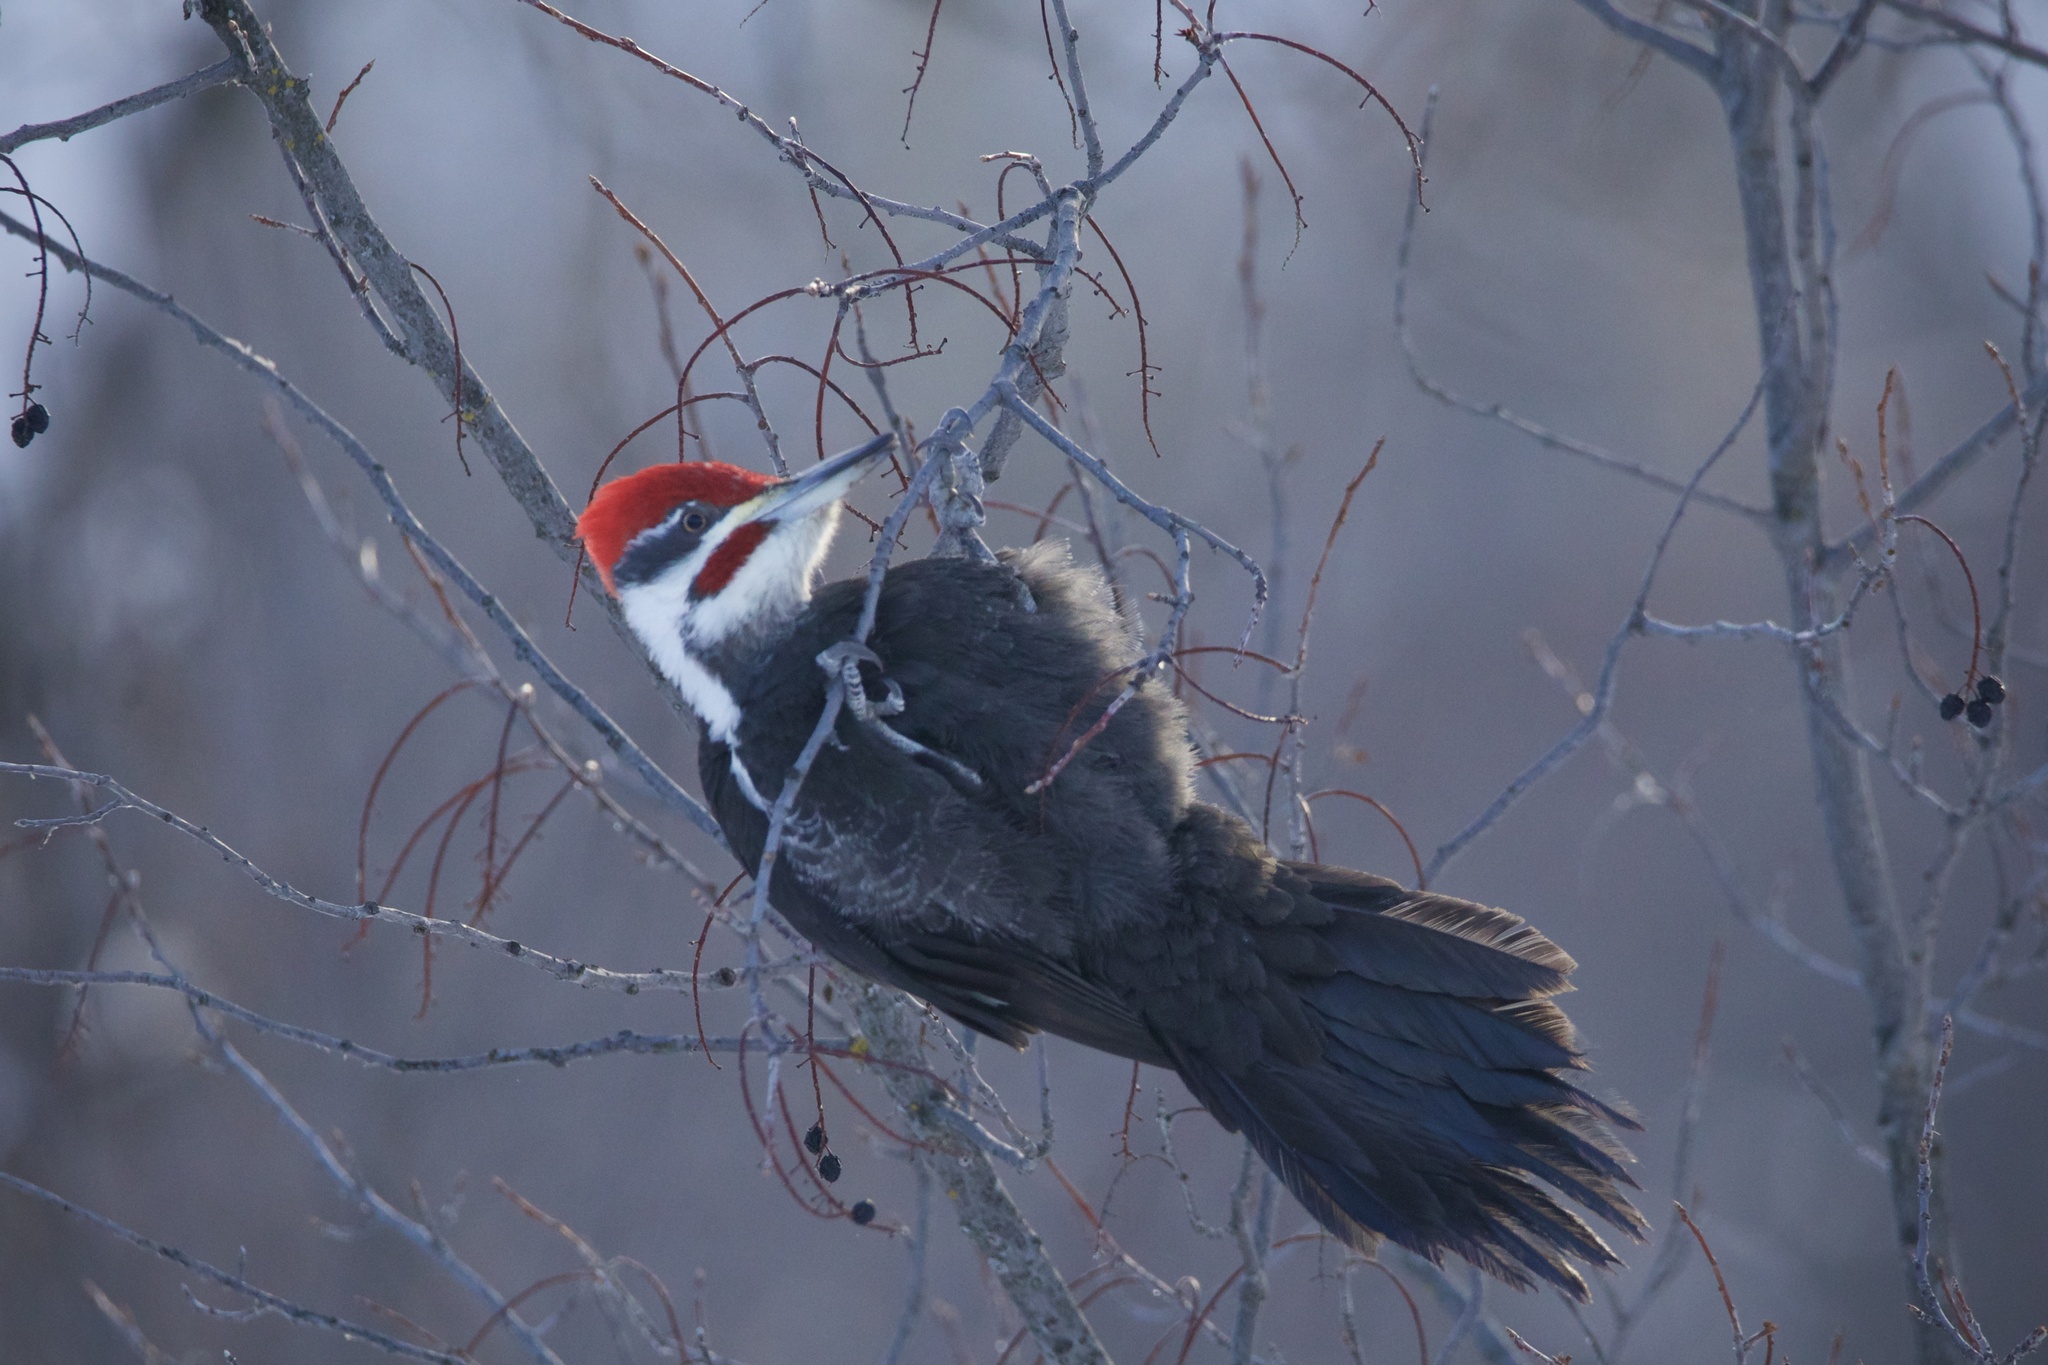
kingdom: Animalia
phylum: Chordata
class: Aves
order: Piciformes
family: Picidae
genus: Dryocopus
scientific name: Dryocopus pileatus
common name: Pileated woodpecker
